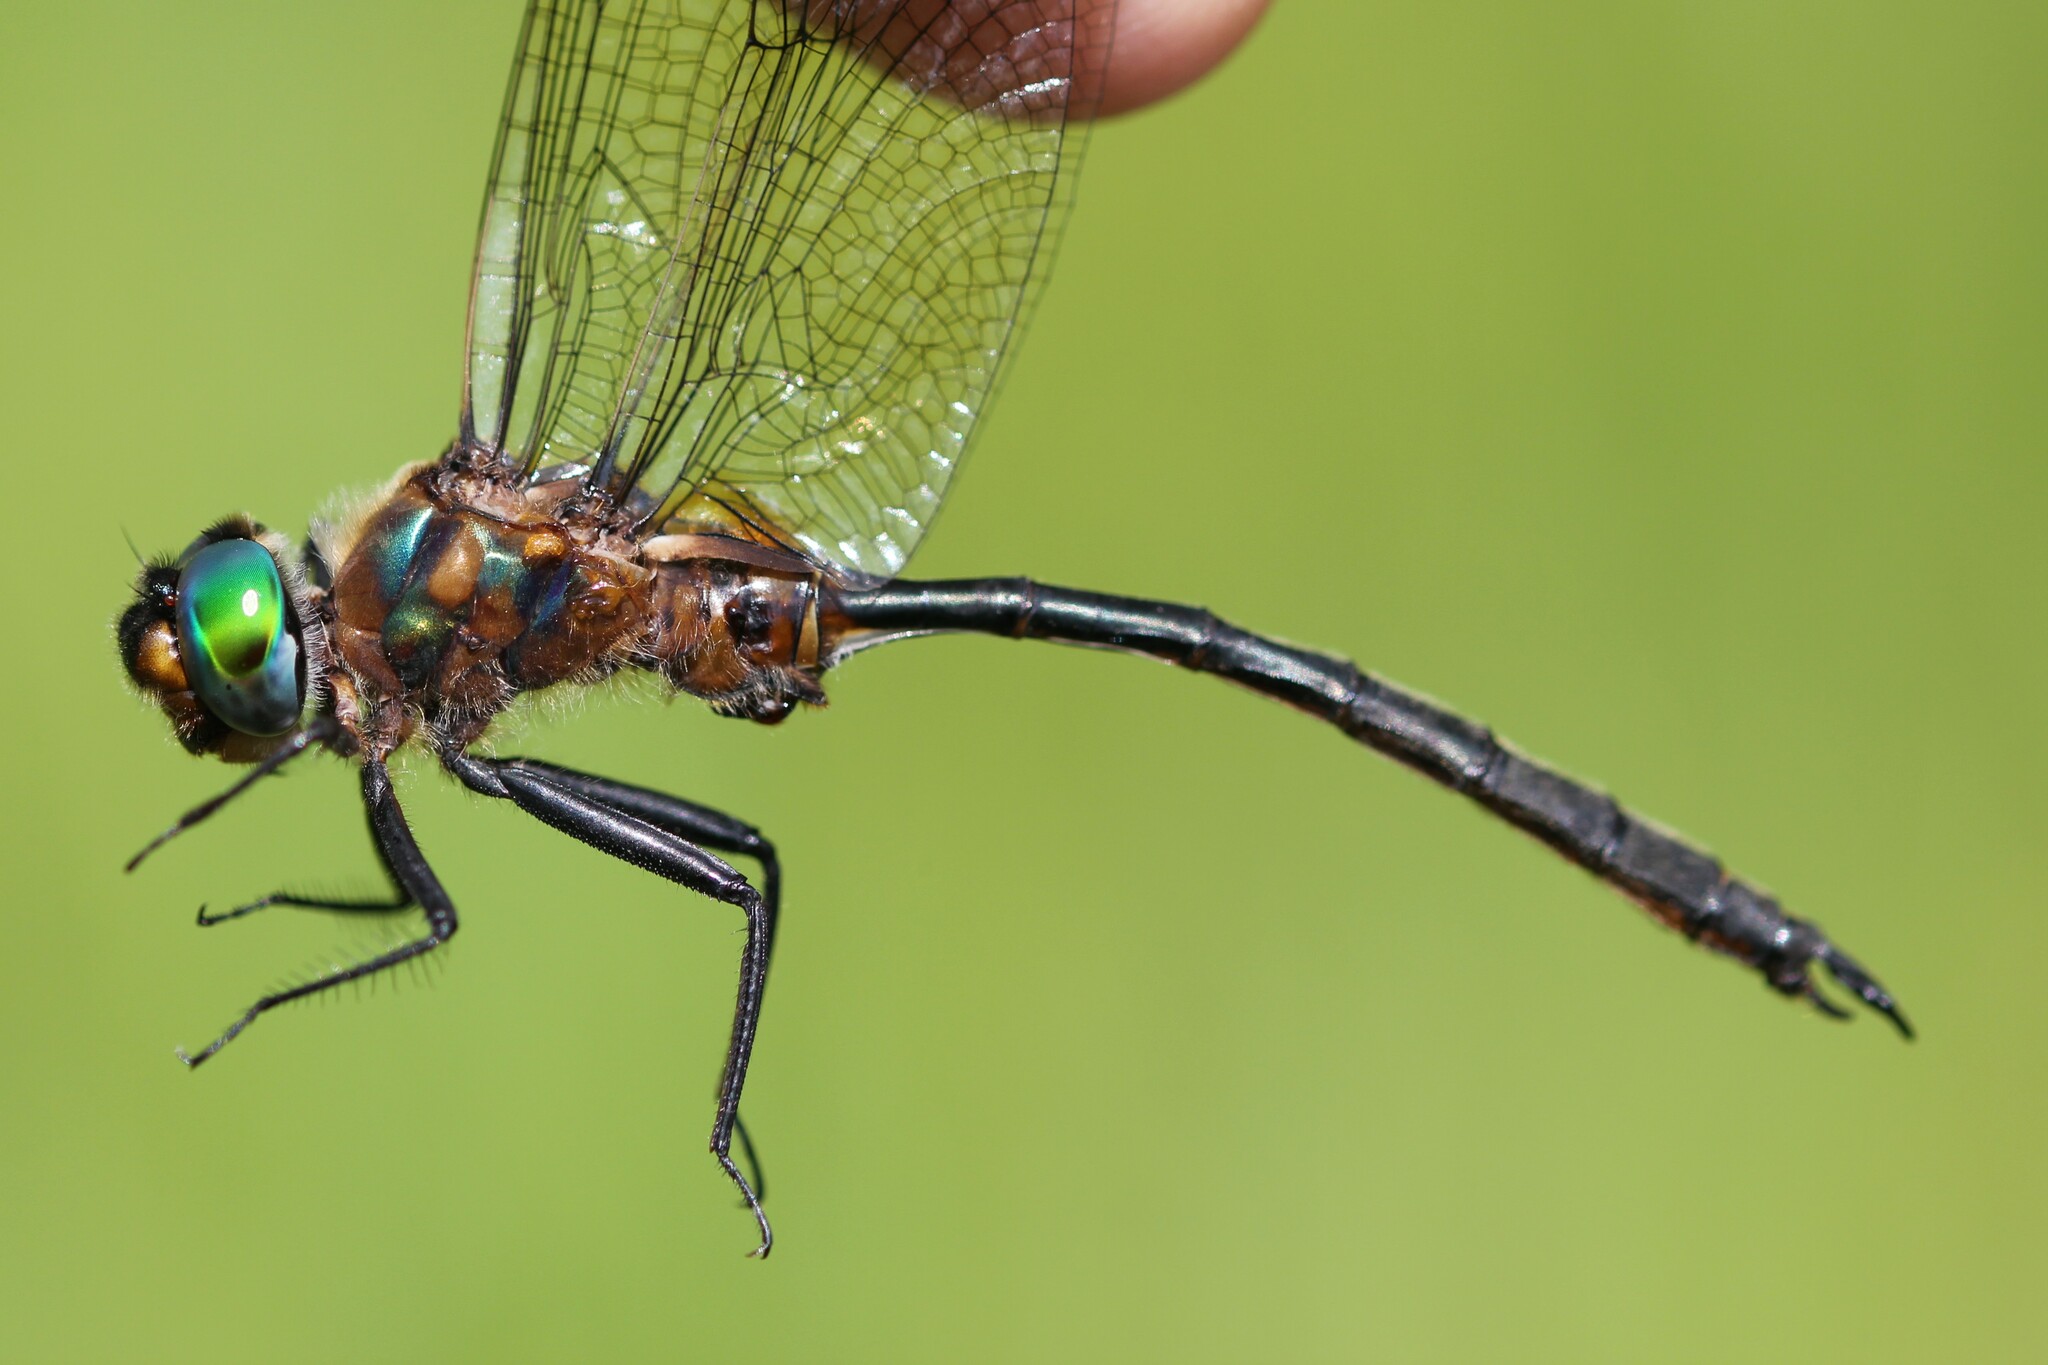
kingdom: Animalia
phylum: Arthropoda
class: Insecta
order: Odonata
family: Corduliidae
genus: Somatochlora
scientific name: Somatochlora kennedyi
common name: Kennedy's emerald
